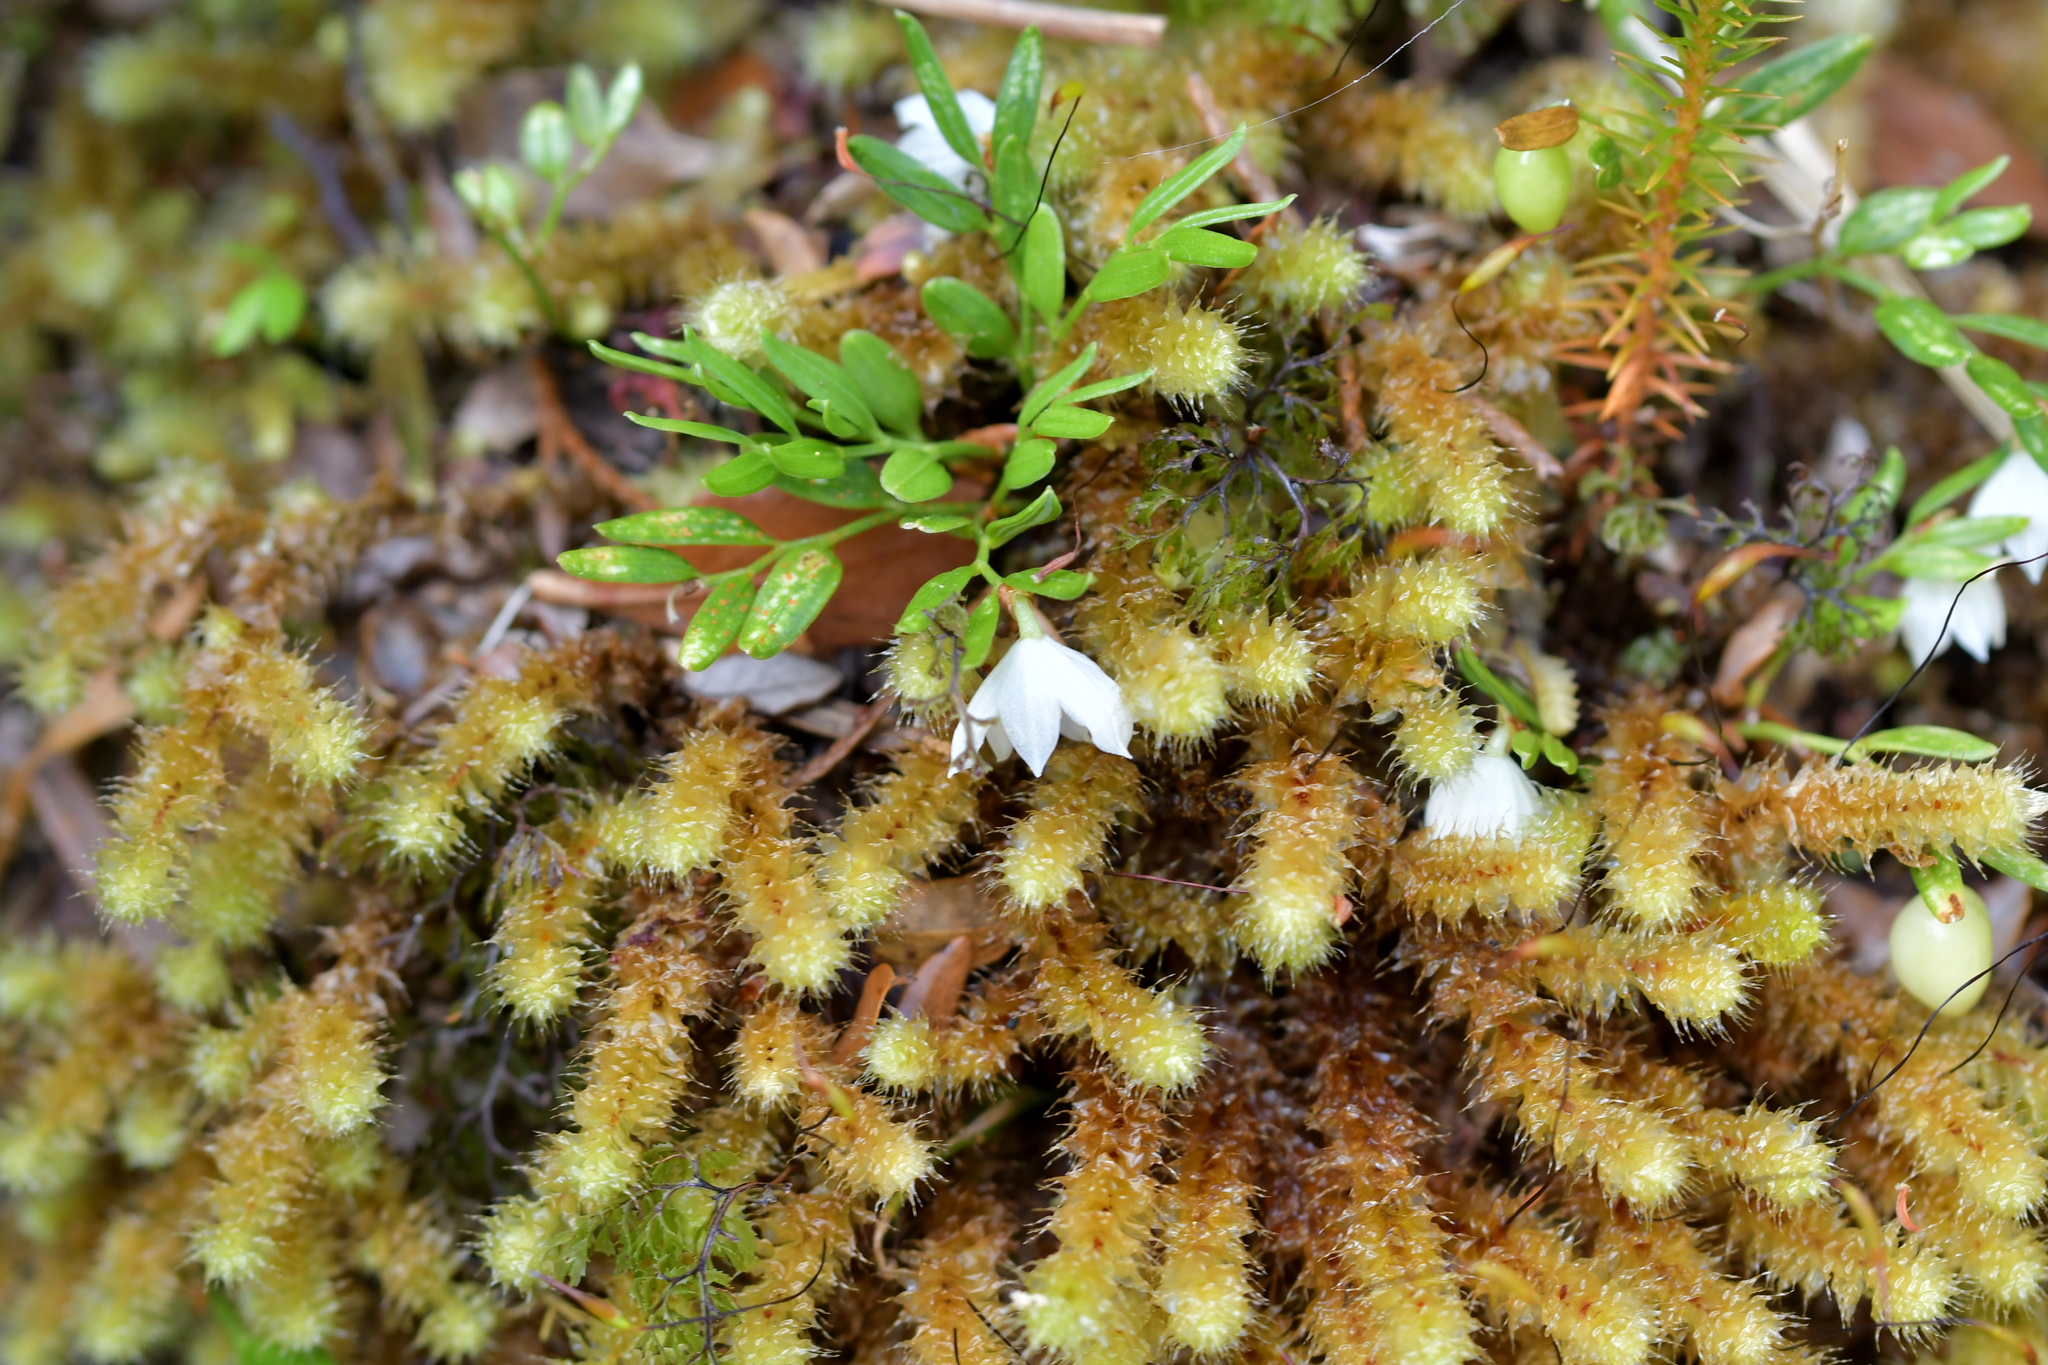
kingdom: Plantae
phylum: Tracheophyta
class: Liliopsida
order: Liliales
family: Alstroemeriaceae
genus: Luzuriaga
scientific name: Luzuriaga parviflora
